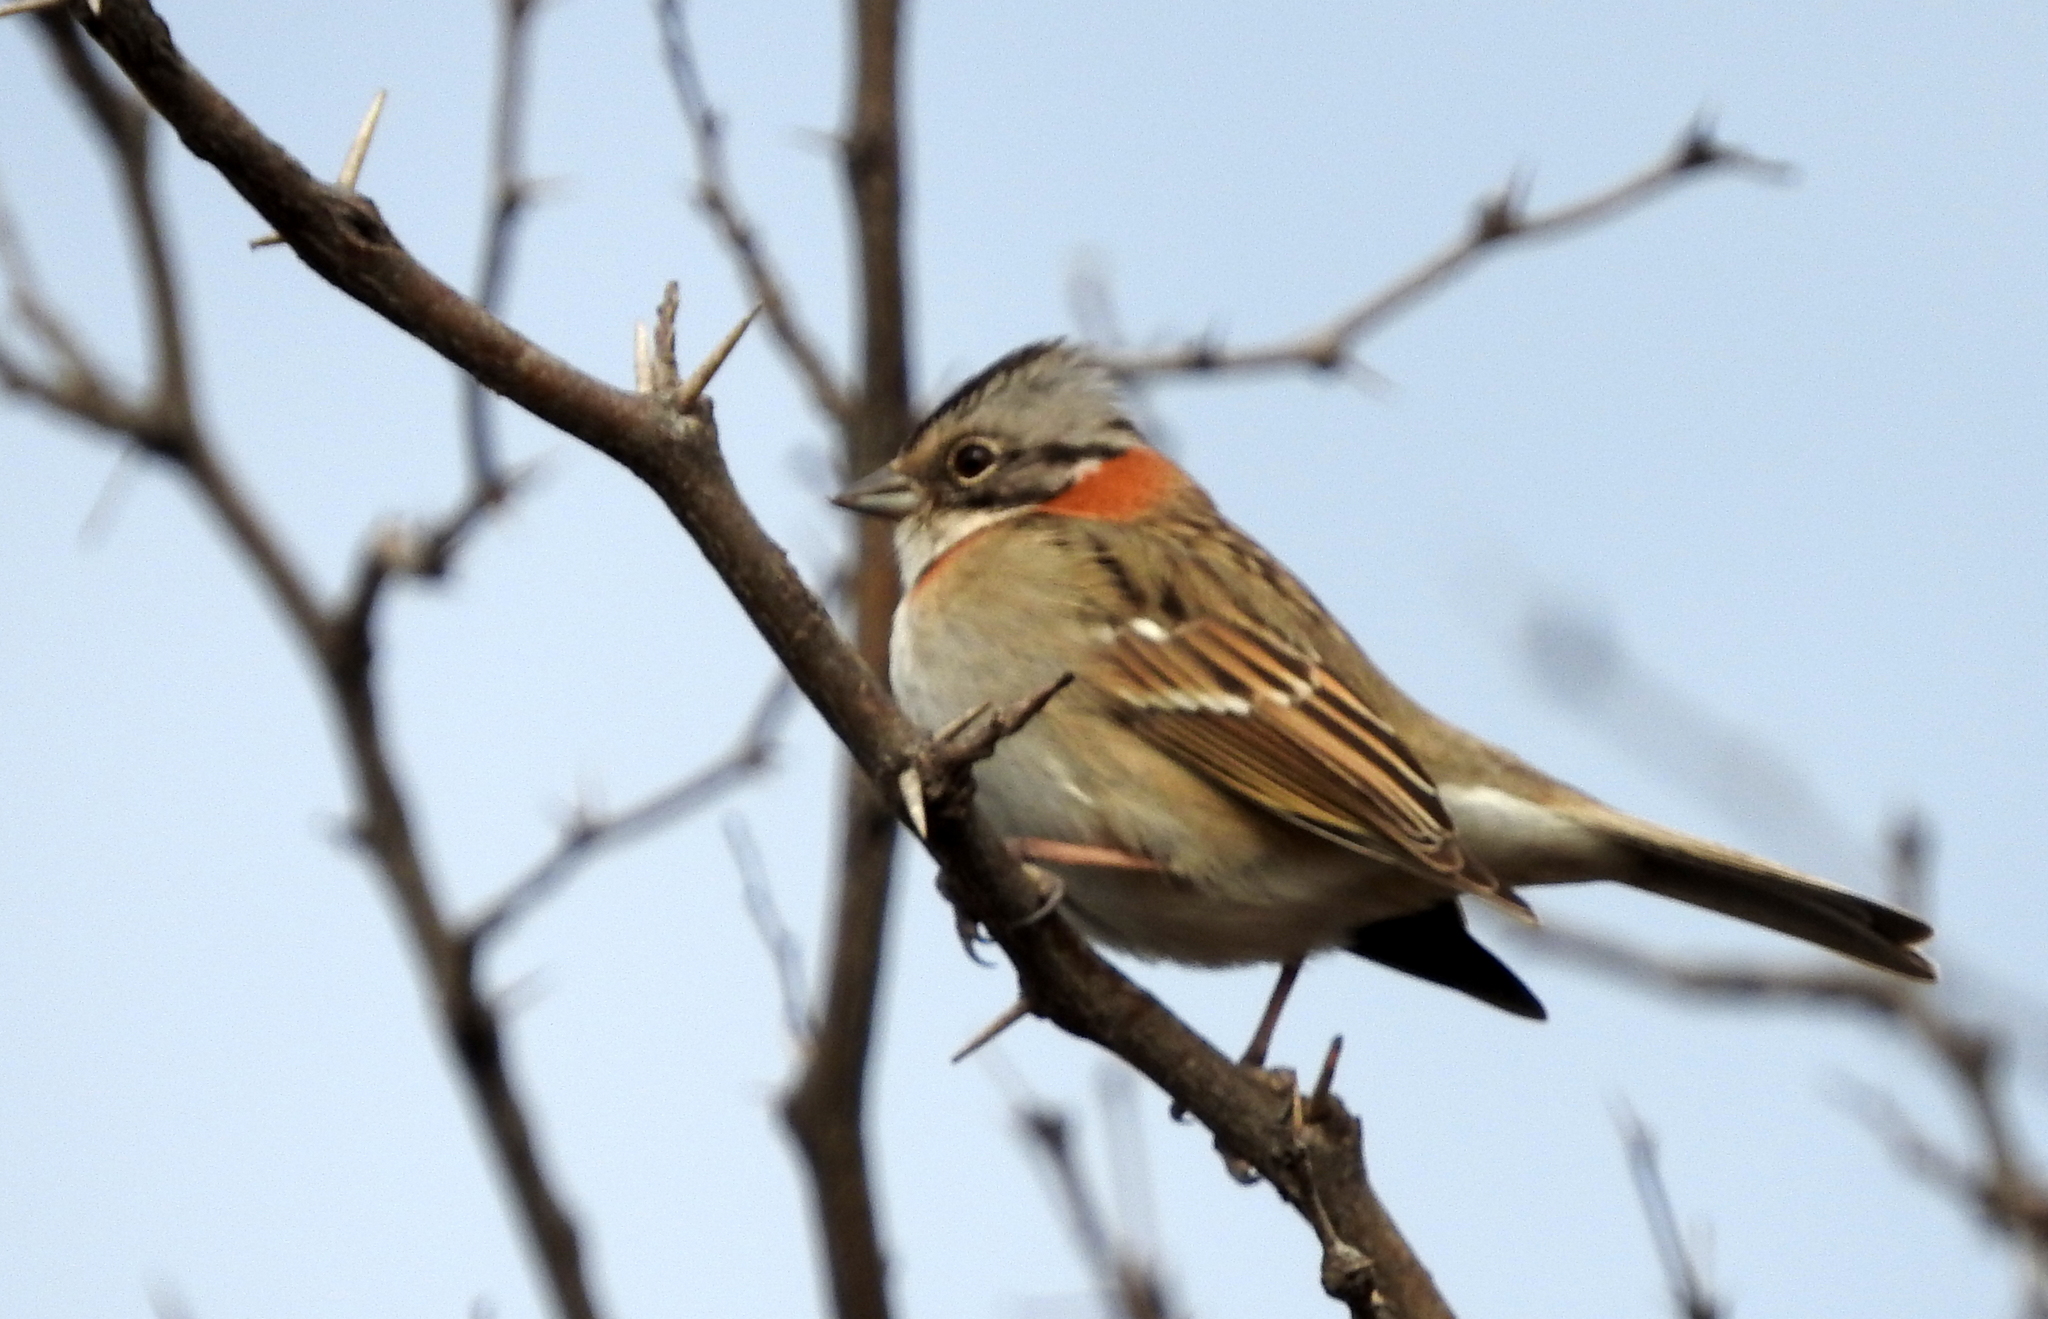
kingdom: Animalia
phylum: Chordata
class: Aves
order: Passeriformes
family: Passerellidae
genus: Zonotrichia
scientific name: Zonotrichia capensis
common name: Rufous-collared sparrow
